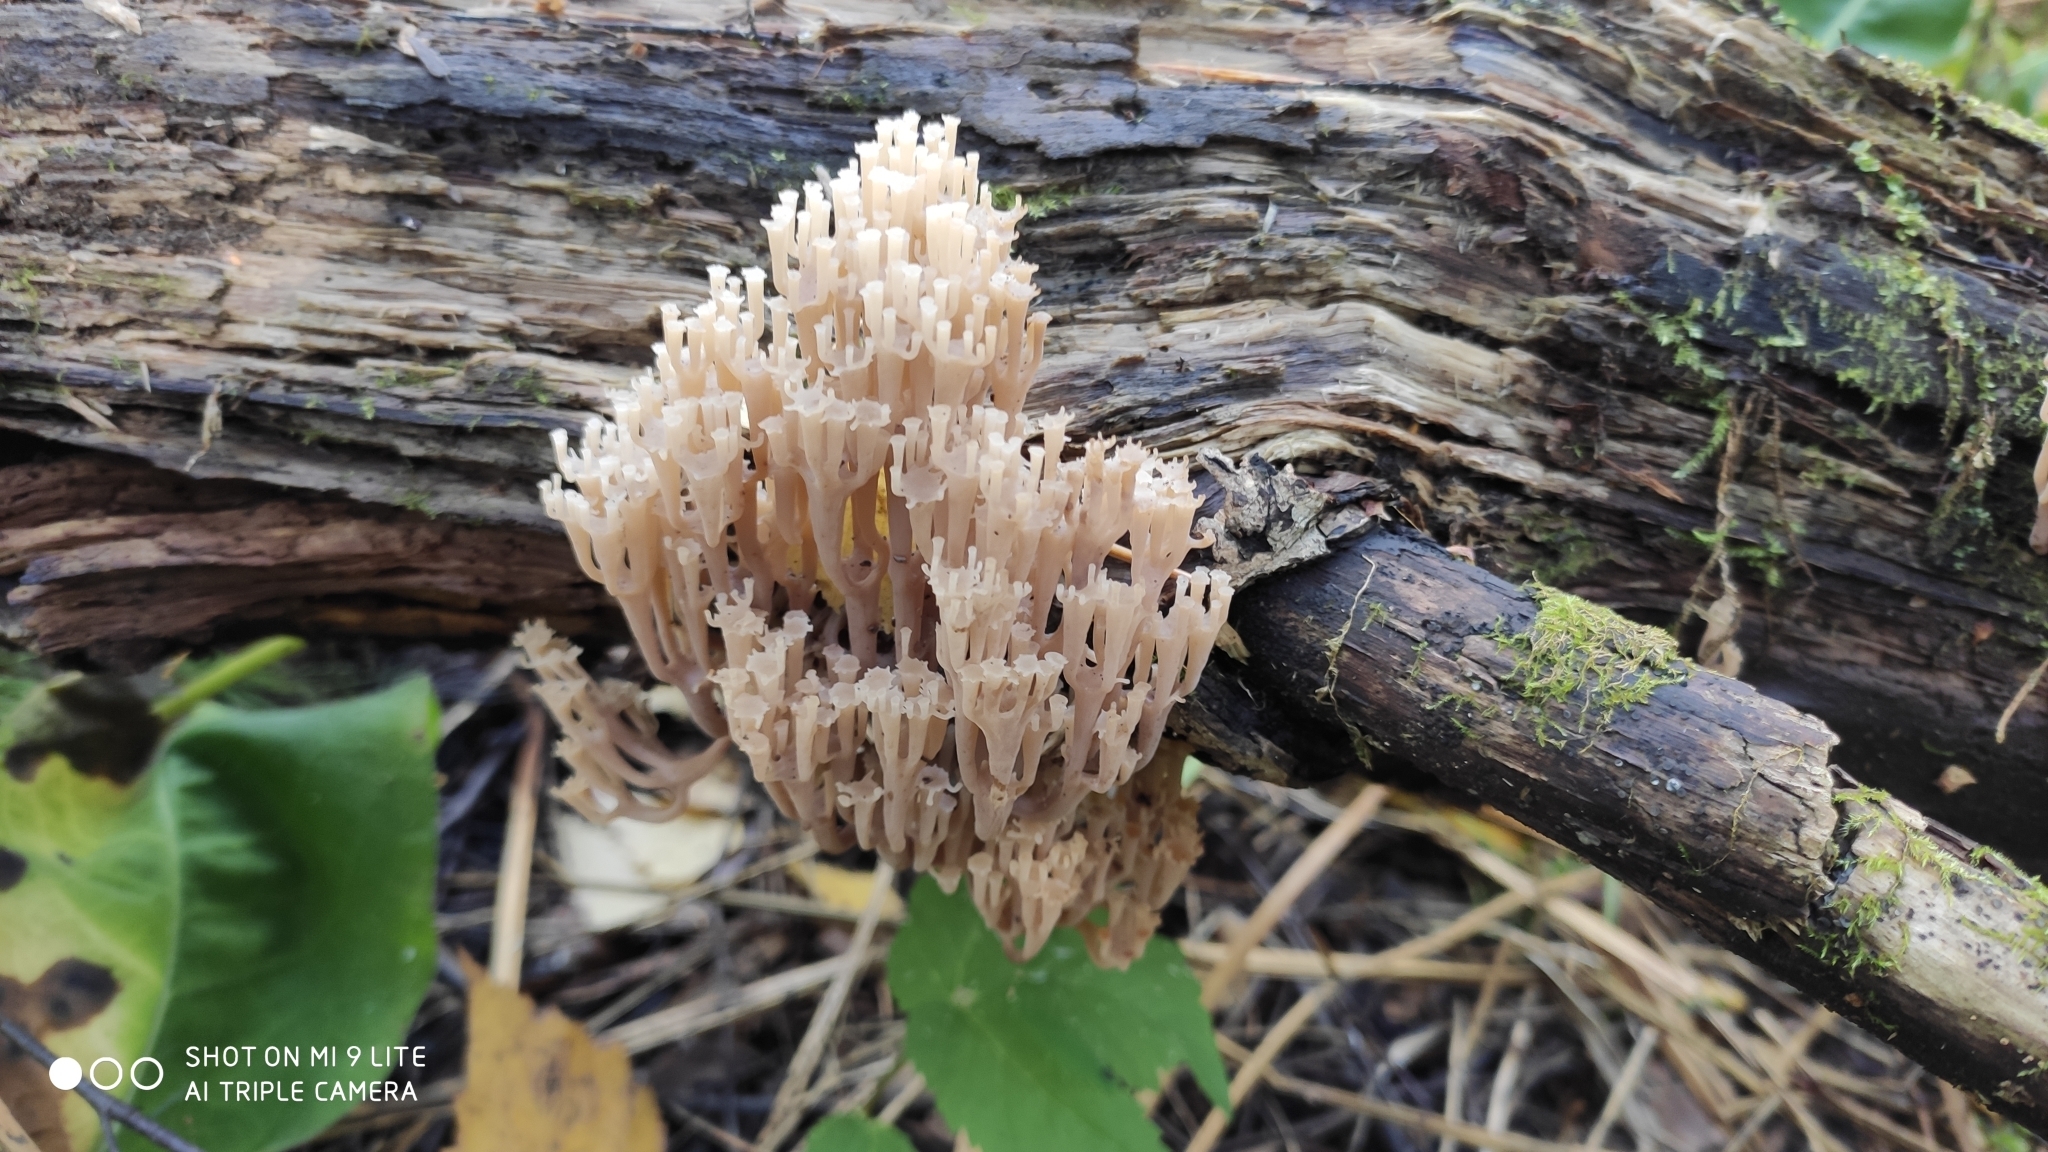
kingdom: Fungi
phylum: Basidiomycota
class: Agaricomycetes
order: Russulales
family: Auriscalpiaceae
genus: Artomyces
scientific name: Artomyces pyxidatus
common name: Crown-tipped coral fungus
